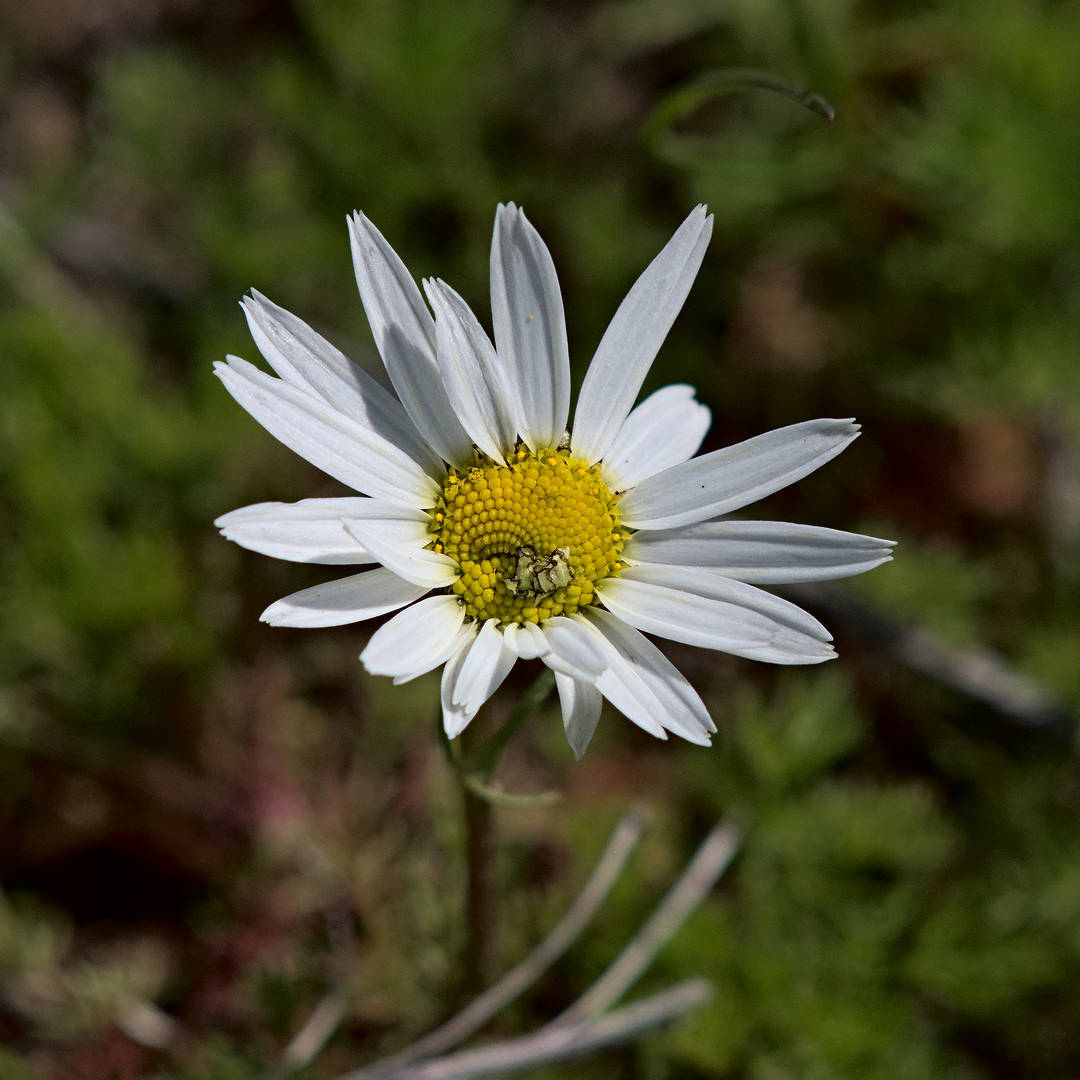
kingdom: Plantae
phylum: Tracheophyta
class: Magnoliopsida
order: Asterales
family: Asteraceae
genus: Leucanthemum
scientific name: Leucanthemum vulgare
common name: Oxeye daisy
